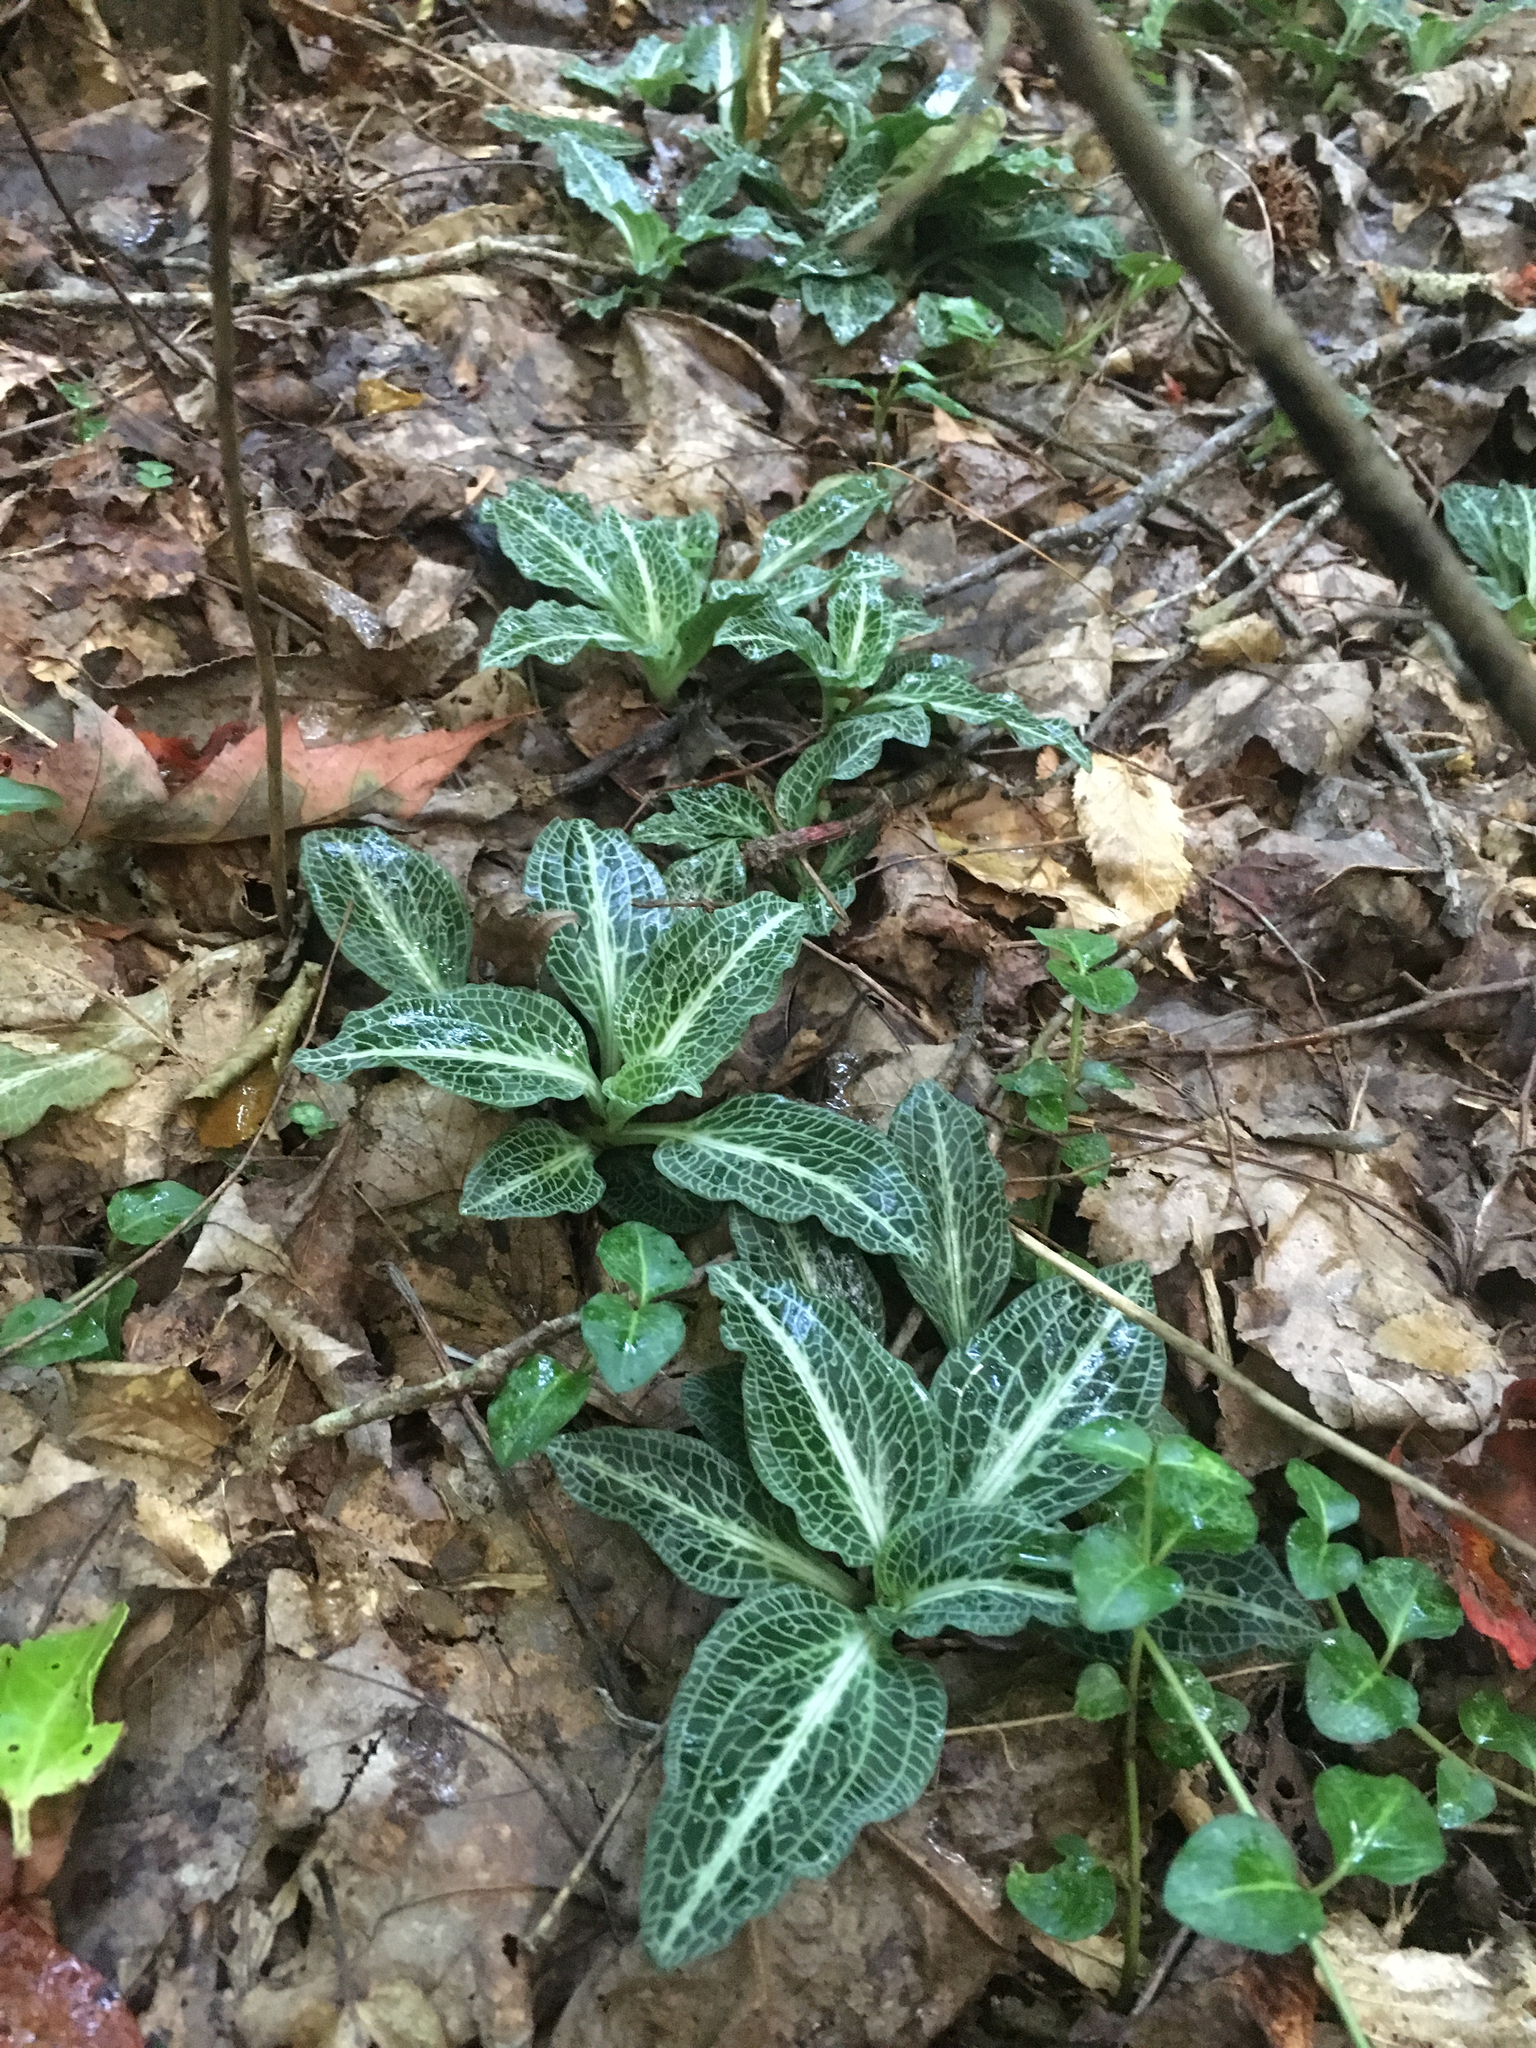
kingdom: Plantae
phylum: Tracheophyta
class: Liliopsida
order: Asparagales
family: Orchidaceae
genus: Goodyera
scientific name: Goodyera pubescens
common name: Downy rattlesnake-plantain
